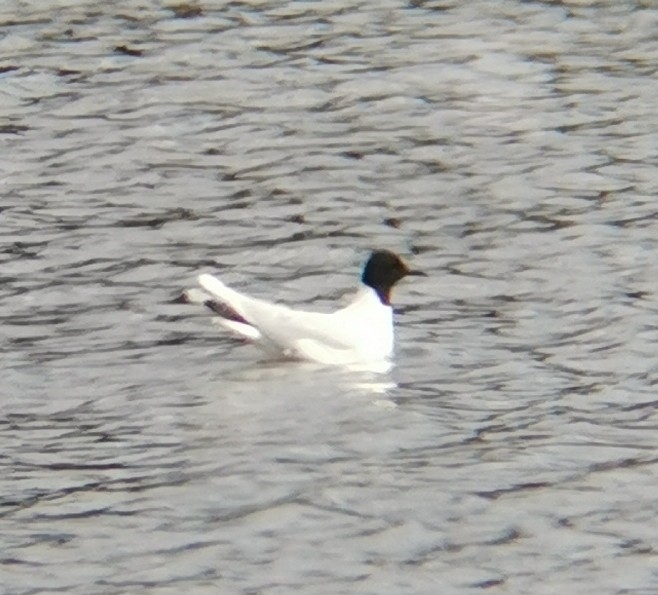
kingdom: Animalia
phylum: Chordata
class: Aves
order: Charadriiformes
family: Laridae
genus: Hydrocoloeus
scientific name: Hydrocoloeus minutus
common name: Little gull
